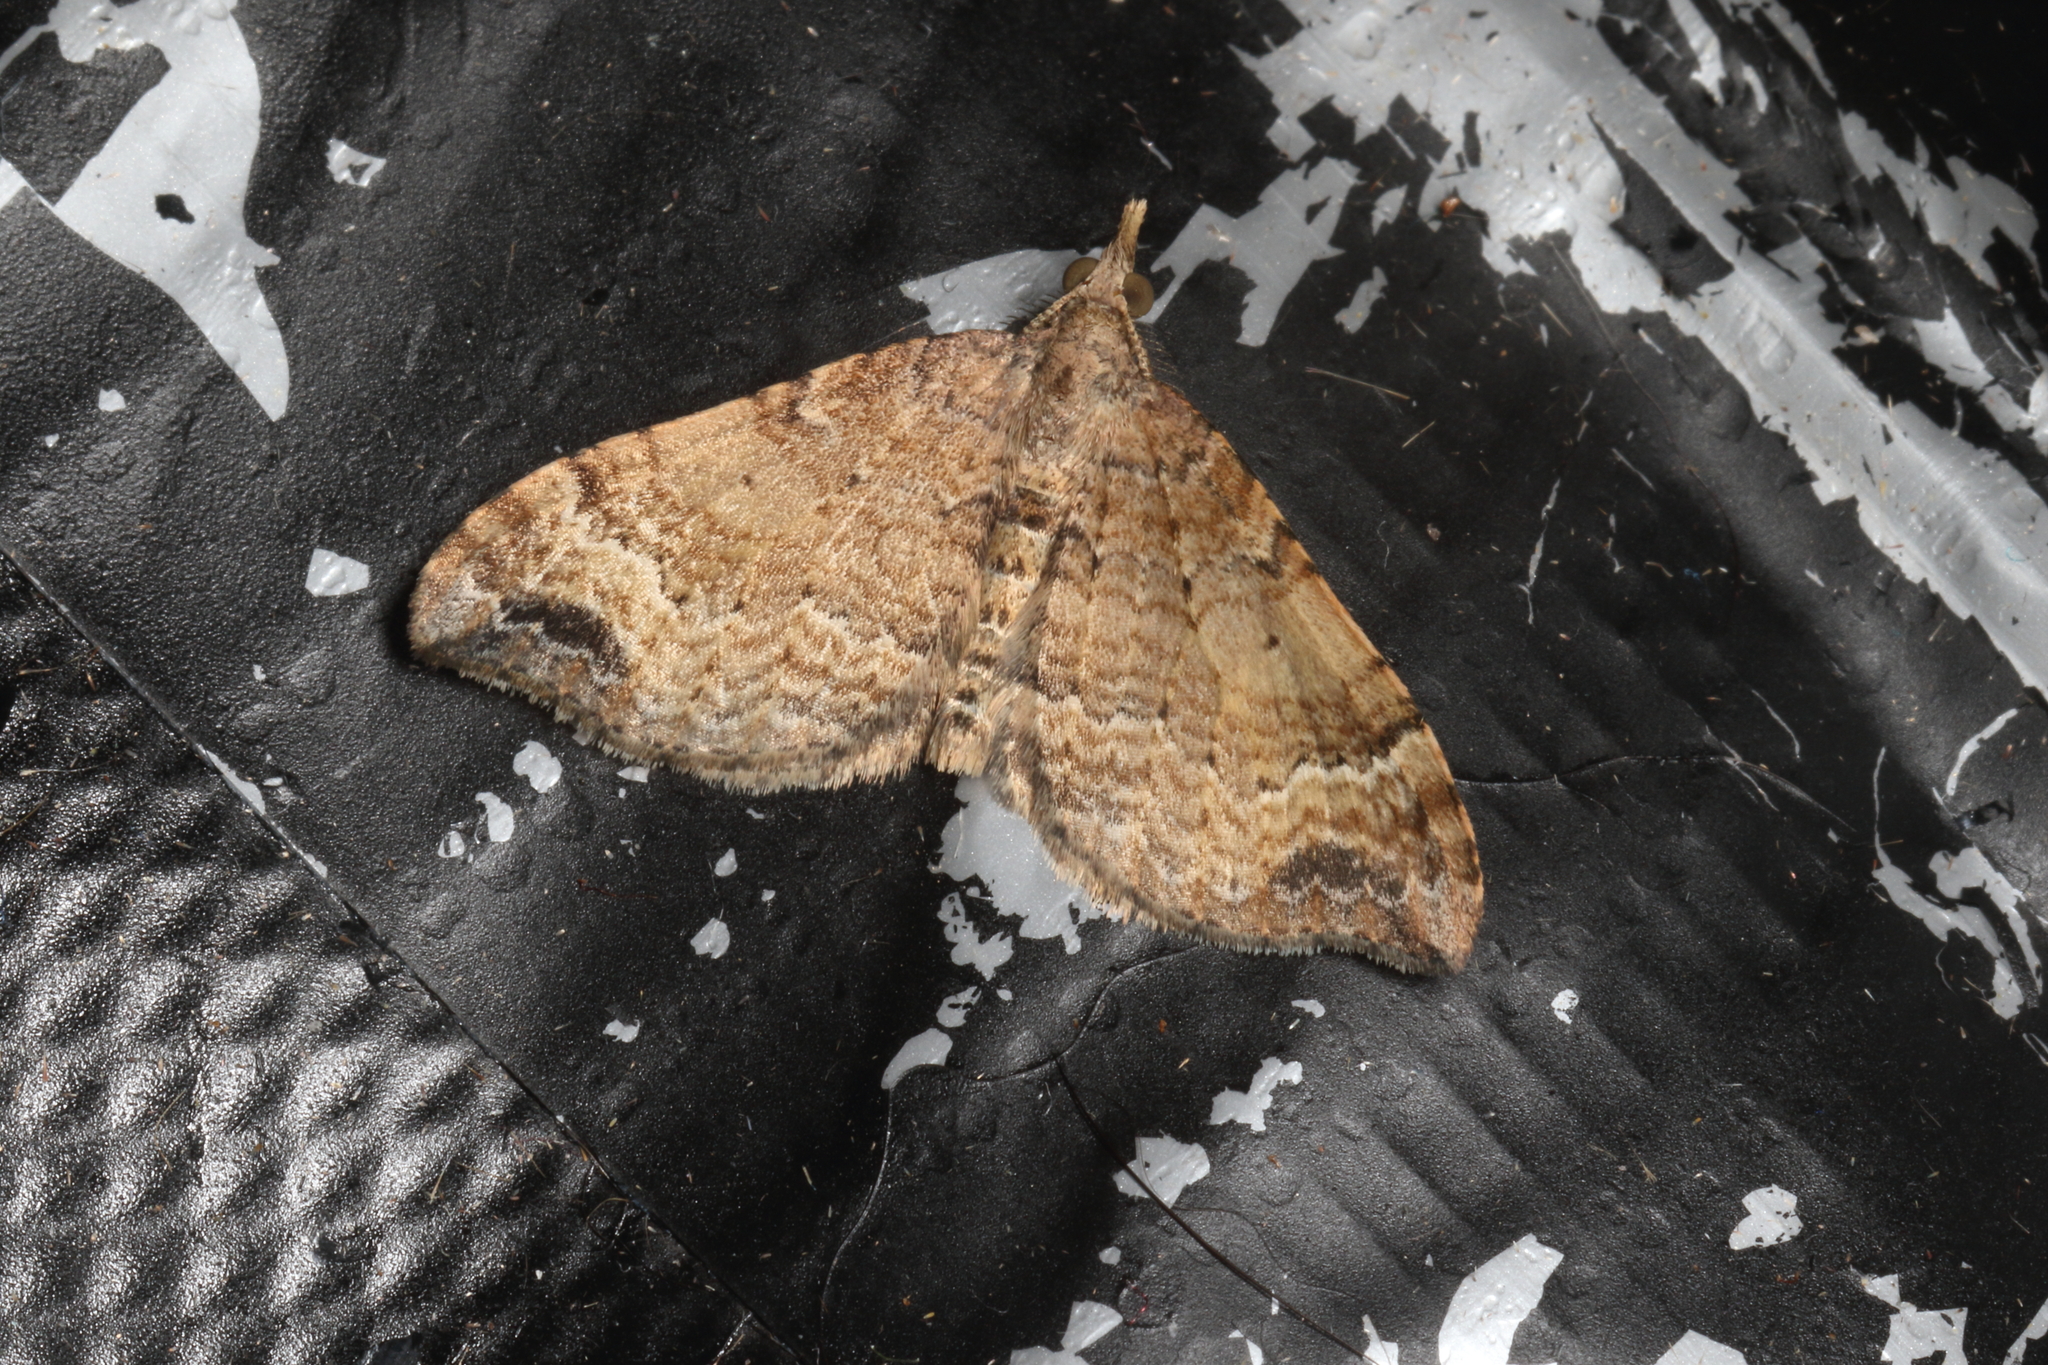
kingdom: Animalia
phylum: Arthropoda
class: Insecta
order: Lepidoptera
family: Geometridae
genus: Homodotis
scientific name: Homodotis megaspilata
